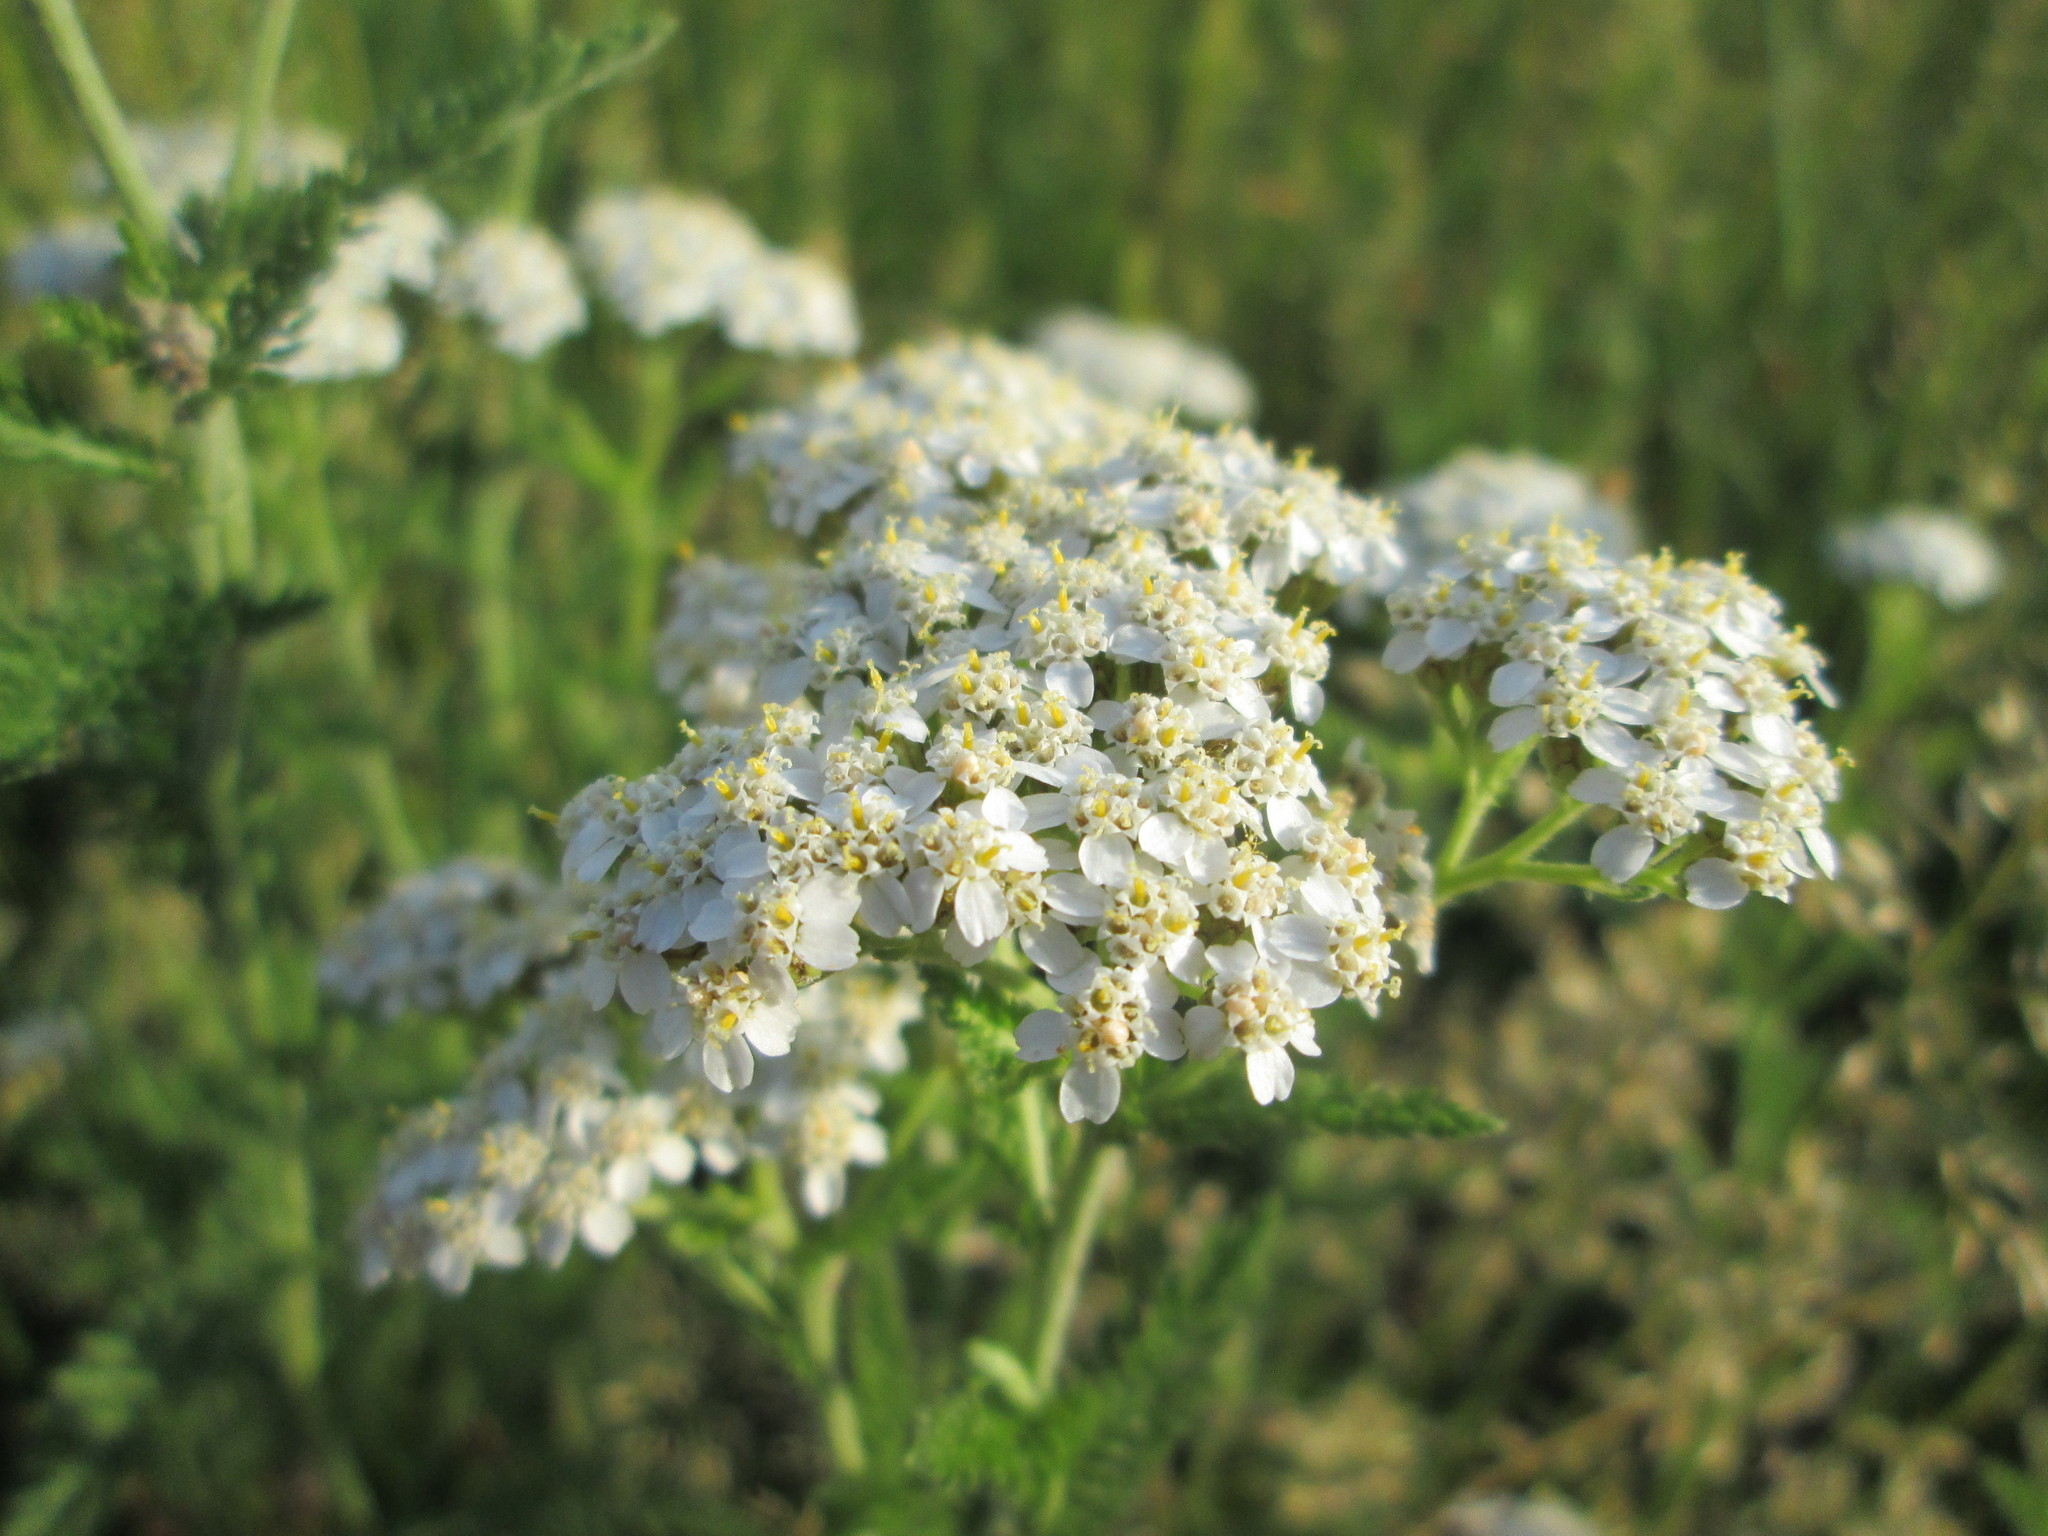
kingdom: Plantae
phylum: Tracheophyta
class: Magnoliopsida
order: Asterales
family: Asteraceae
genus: Achillea
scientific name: Achillea millefolium
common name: Yarrow
